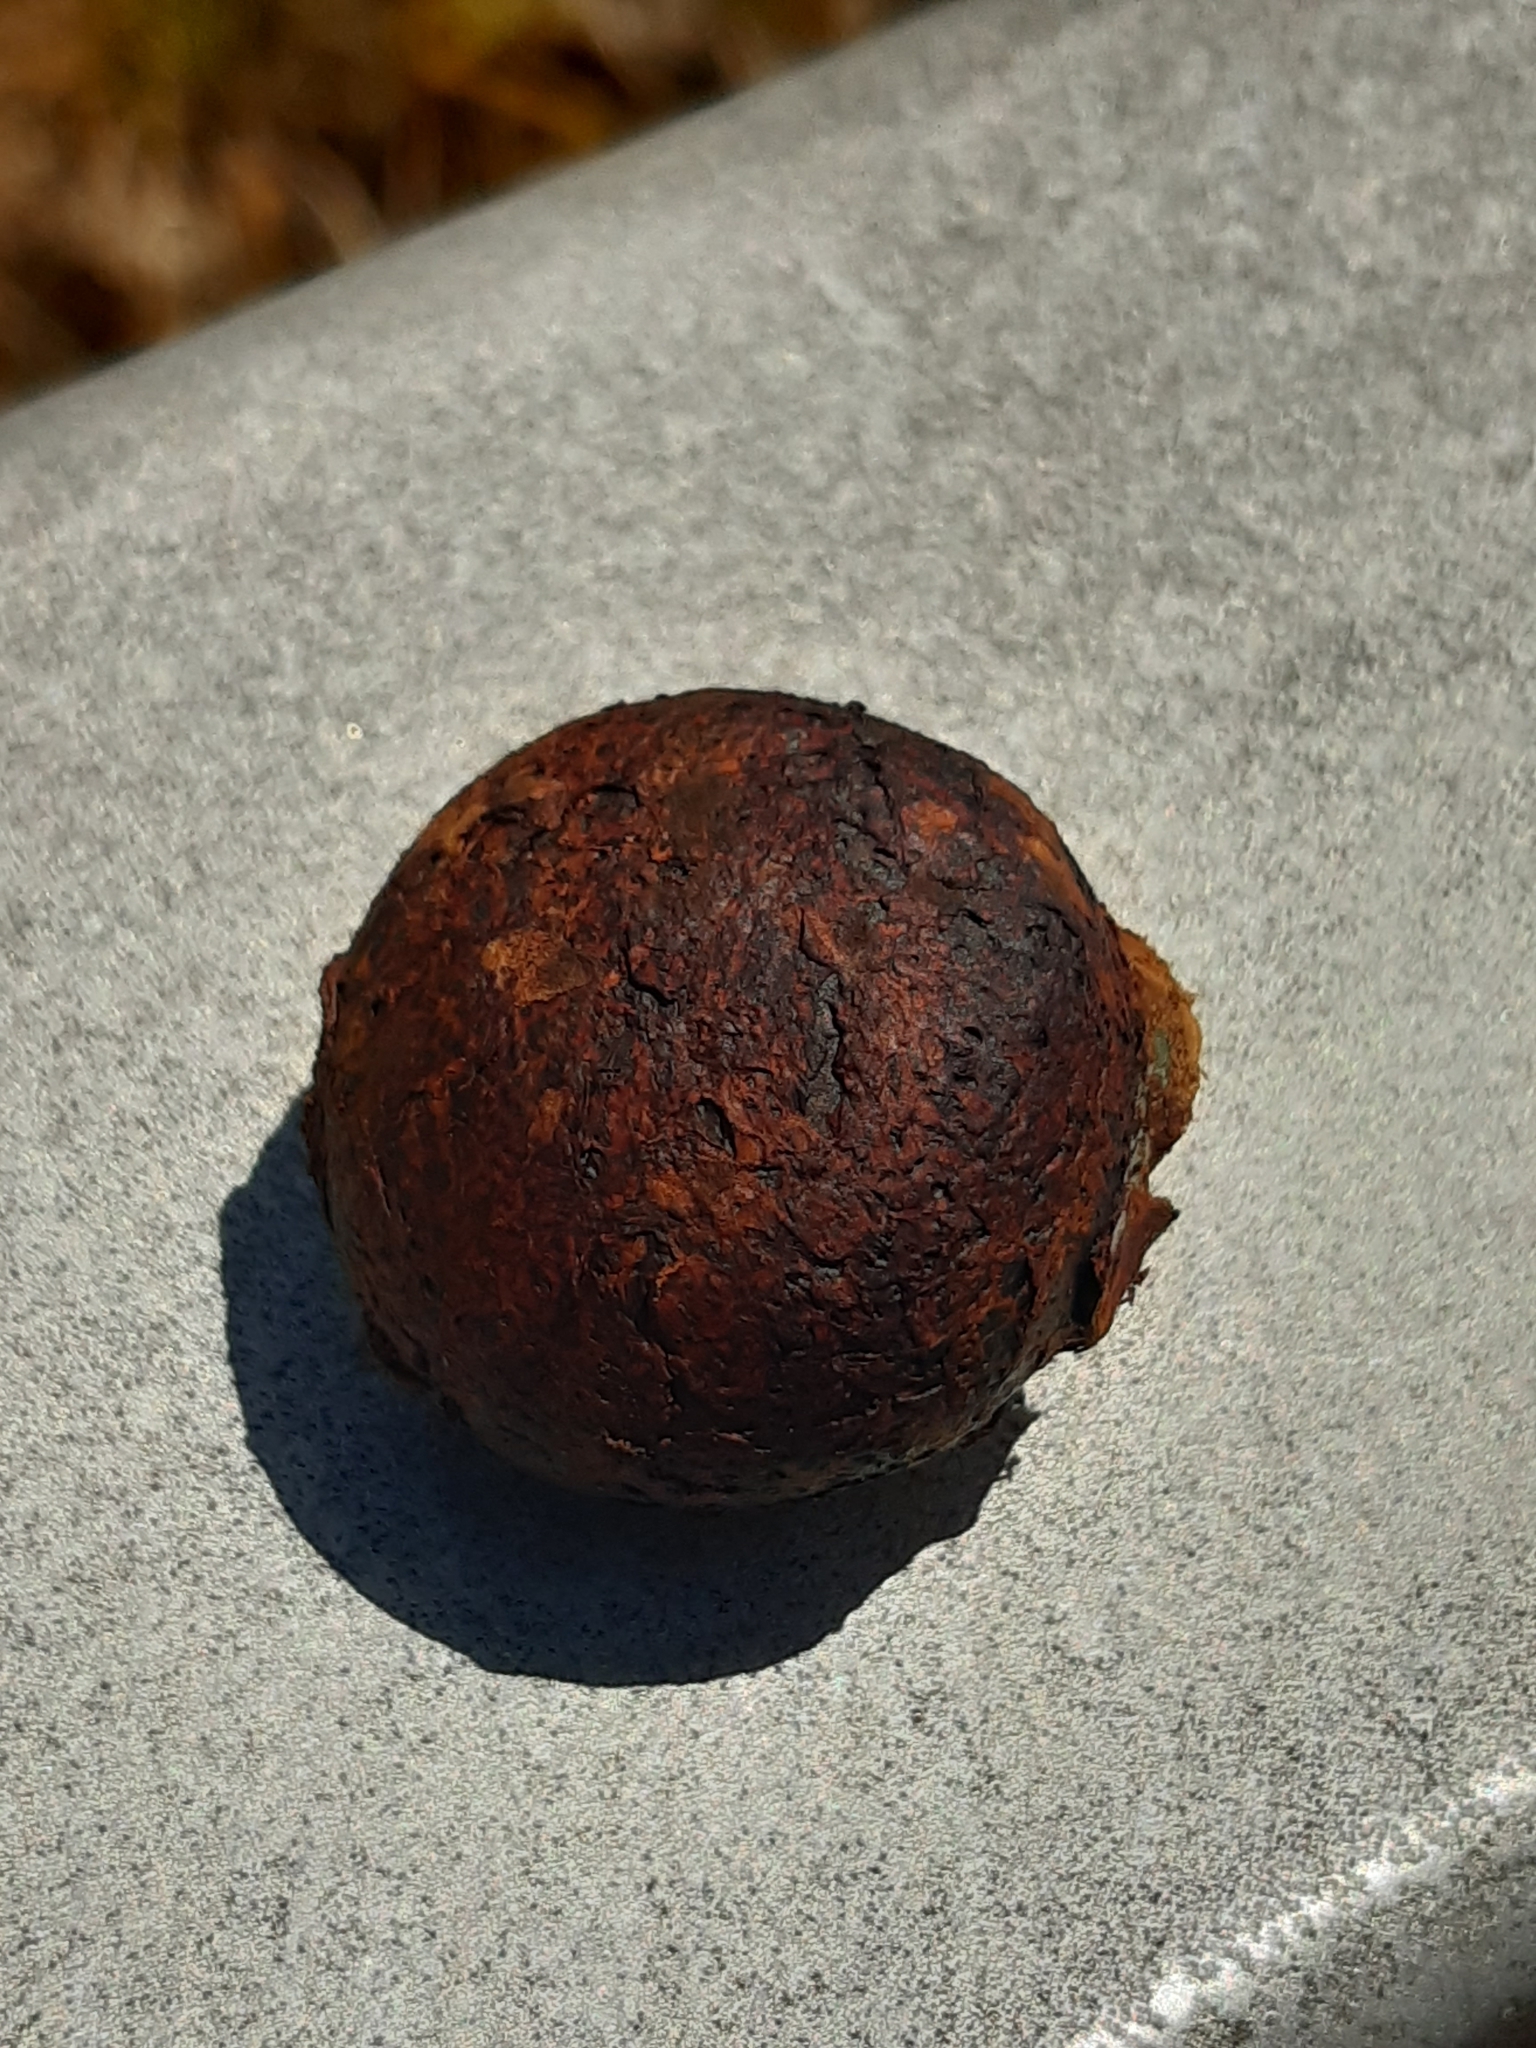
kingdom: Fungi
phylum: Basidiomycota
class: Agaricomycetes
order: Boletales
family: Sclerodermataceae
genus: Pisolithus
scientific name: Pisolithus thermaeus
